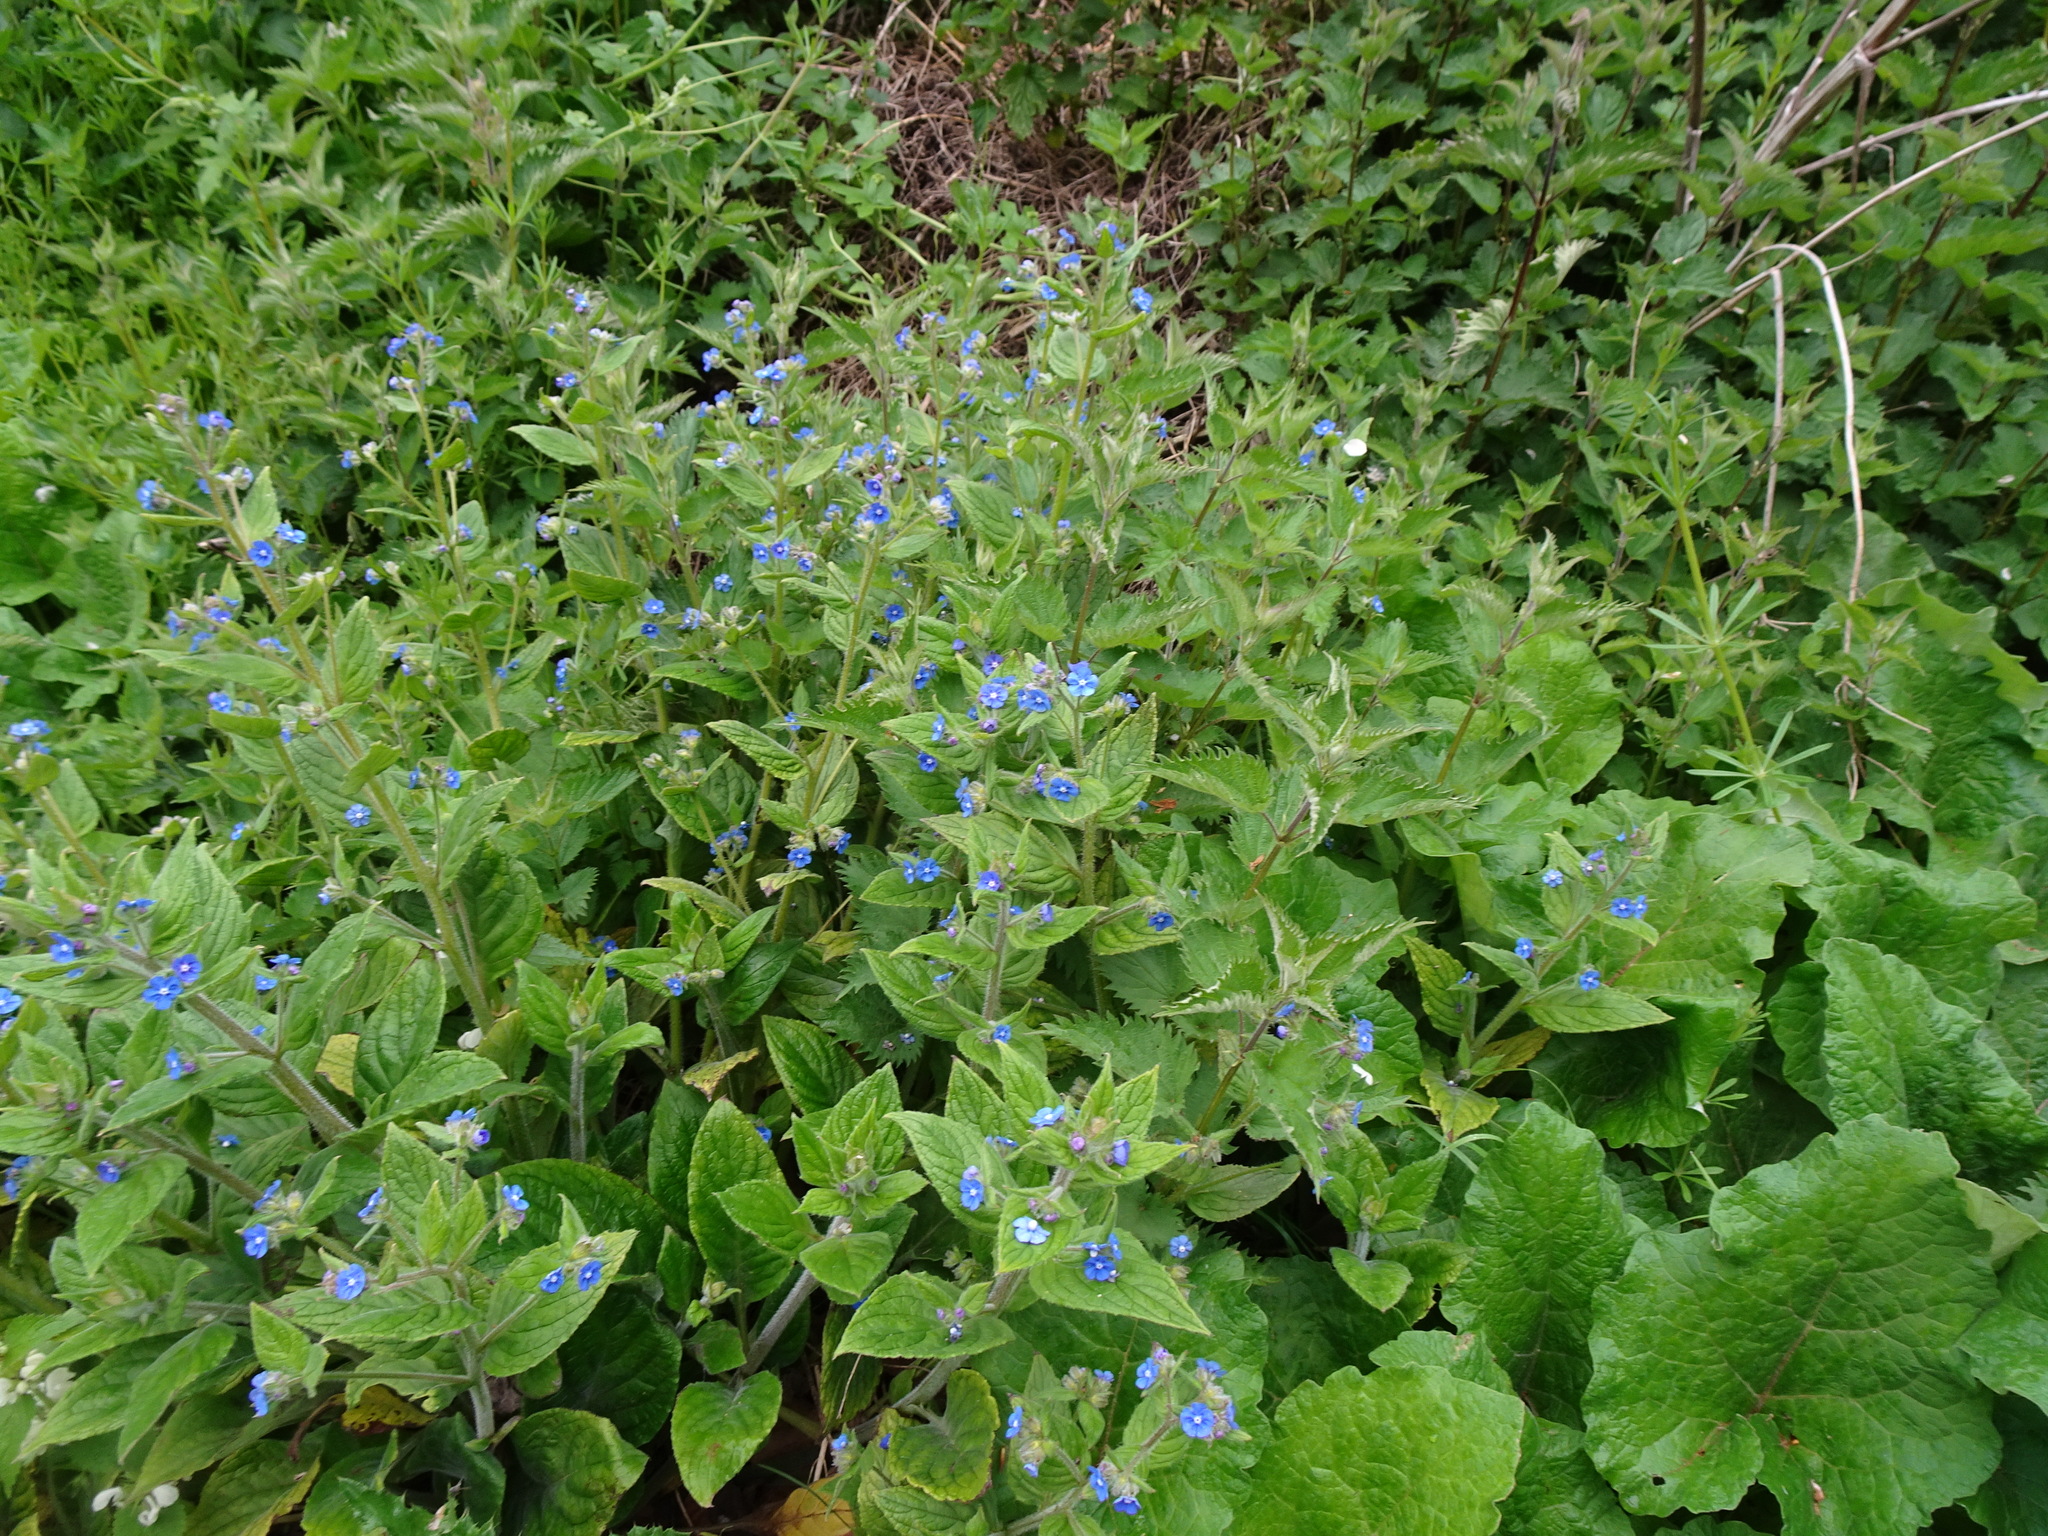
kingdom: Plantae
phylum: Tracheophyta
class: Magnoliopsida
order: Boraginales
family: Boraginaceae
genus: Pentaglottis
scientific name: Pentaglottis sempervirens
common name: Green alkanet
